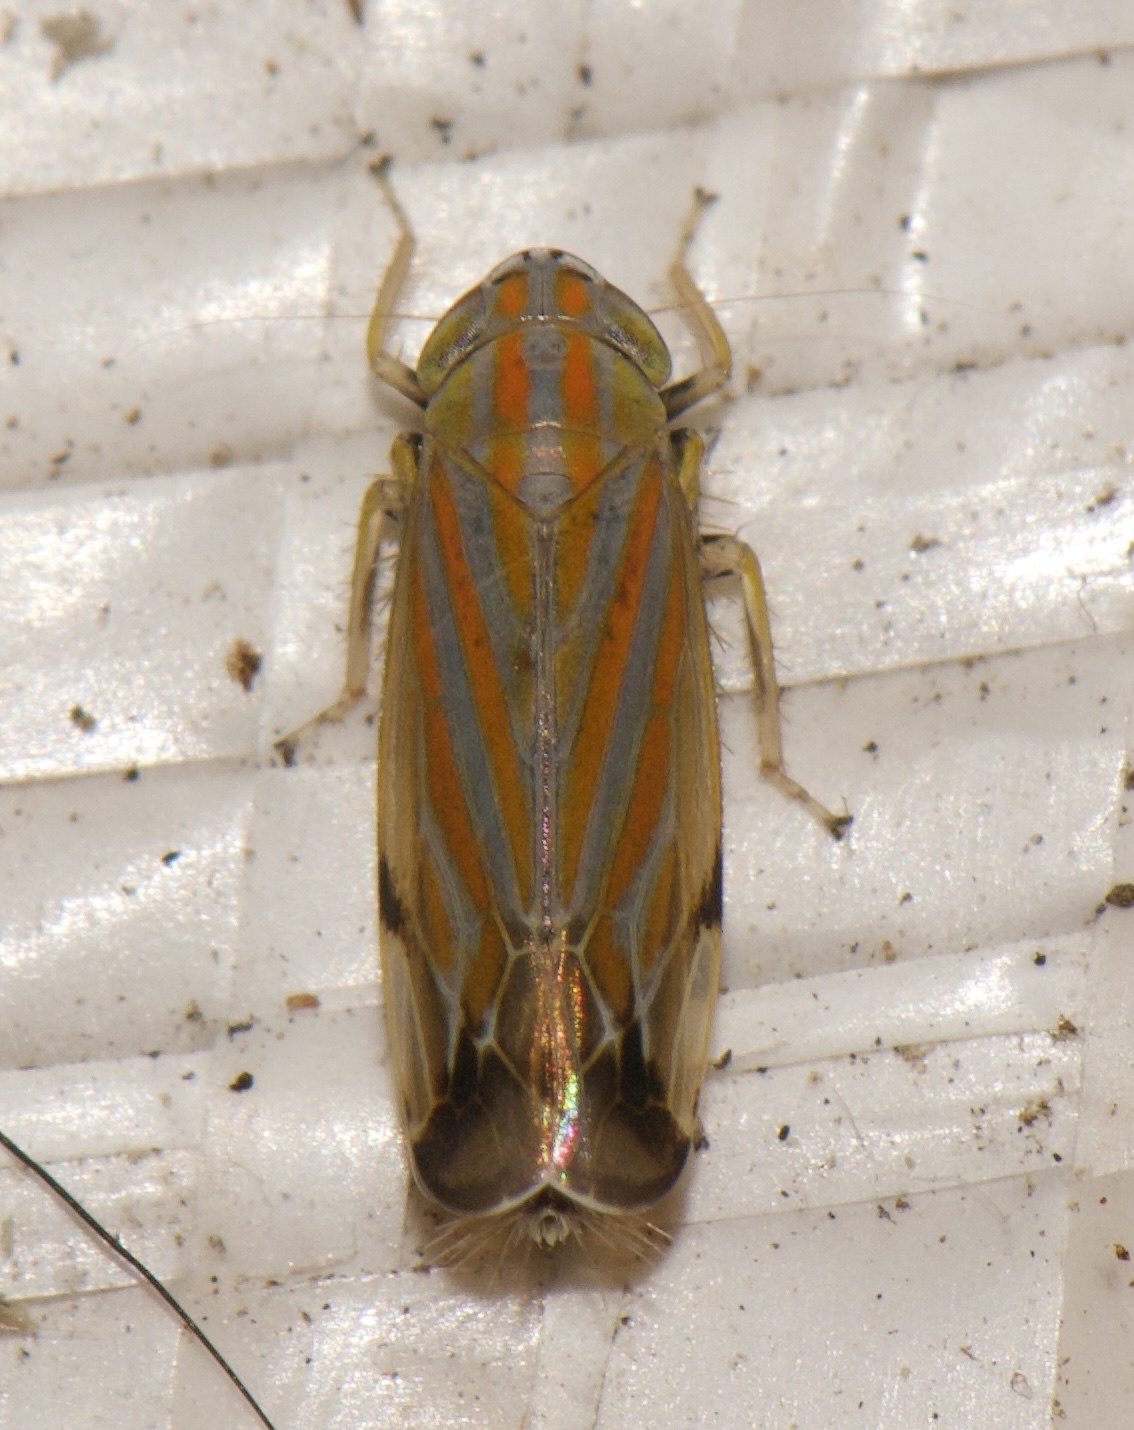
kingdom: Animalia
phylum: Arthropoda
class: Insecta
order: Hemiptera
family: Cicadellidae
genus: Deltanus
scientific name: Deltanus texanus
